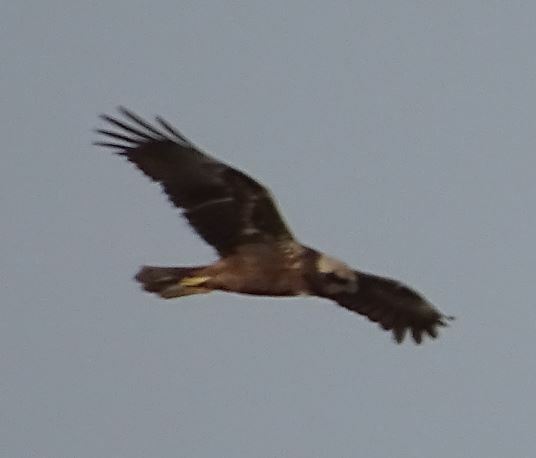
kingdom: Animalia
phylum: Chordata
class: Aves
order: Accipitriformes
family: Accipitridae
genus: Circus
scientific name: Circus aeruginosus
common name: Western marsh harrier
